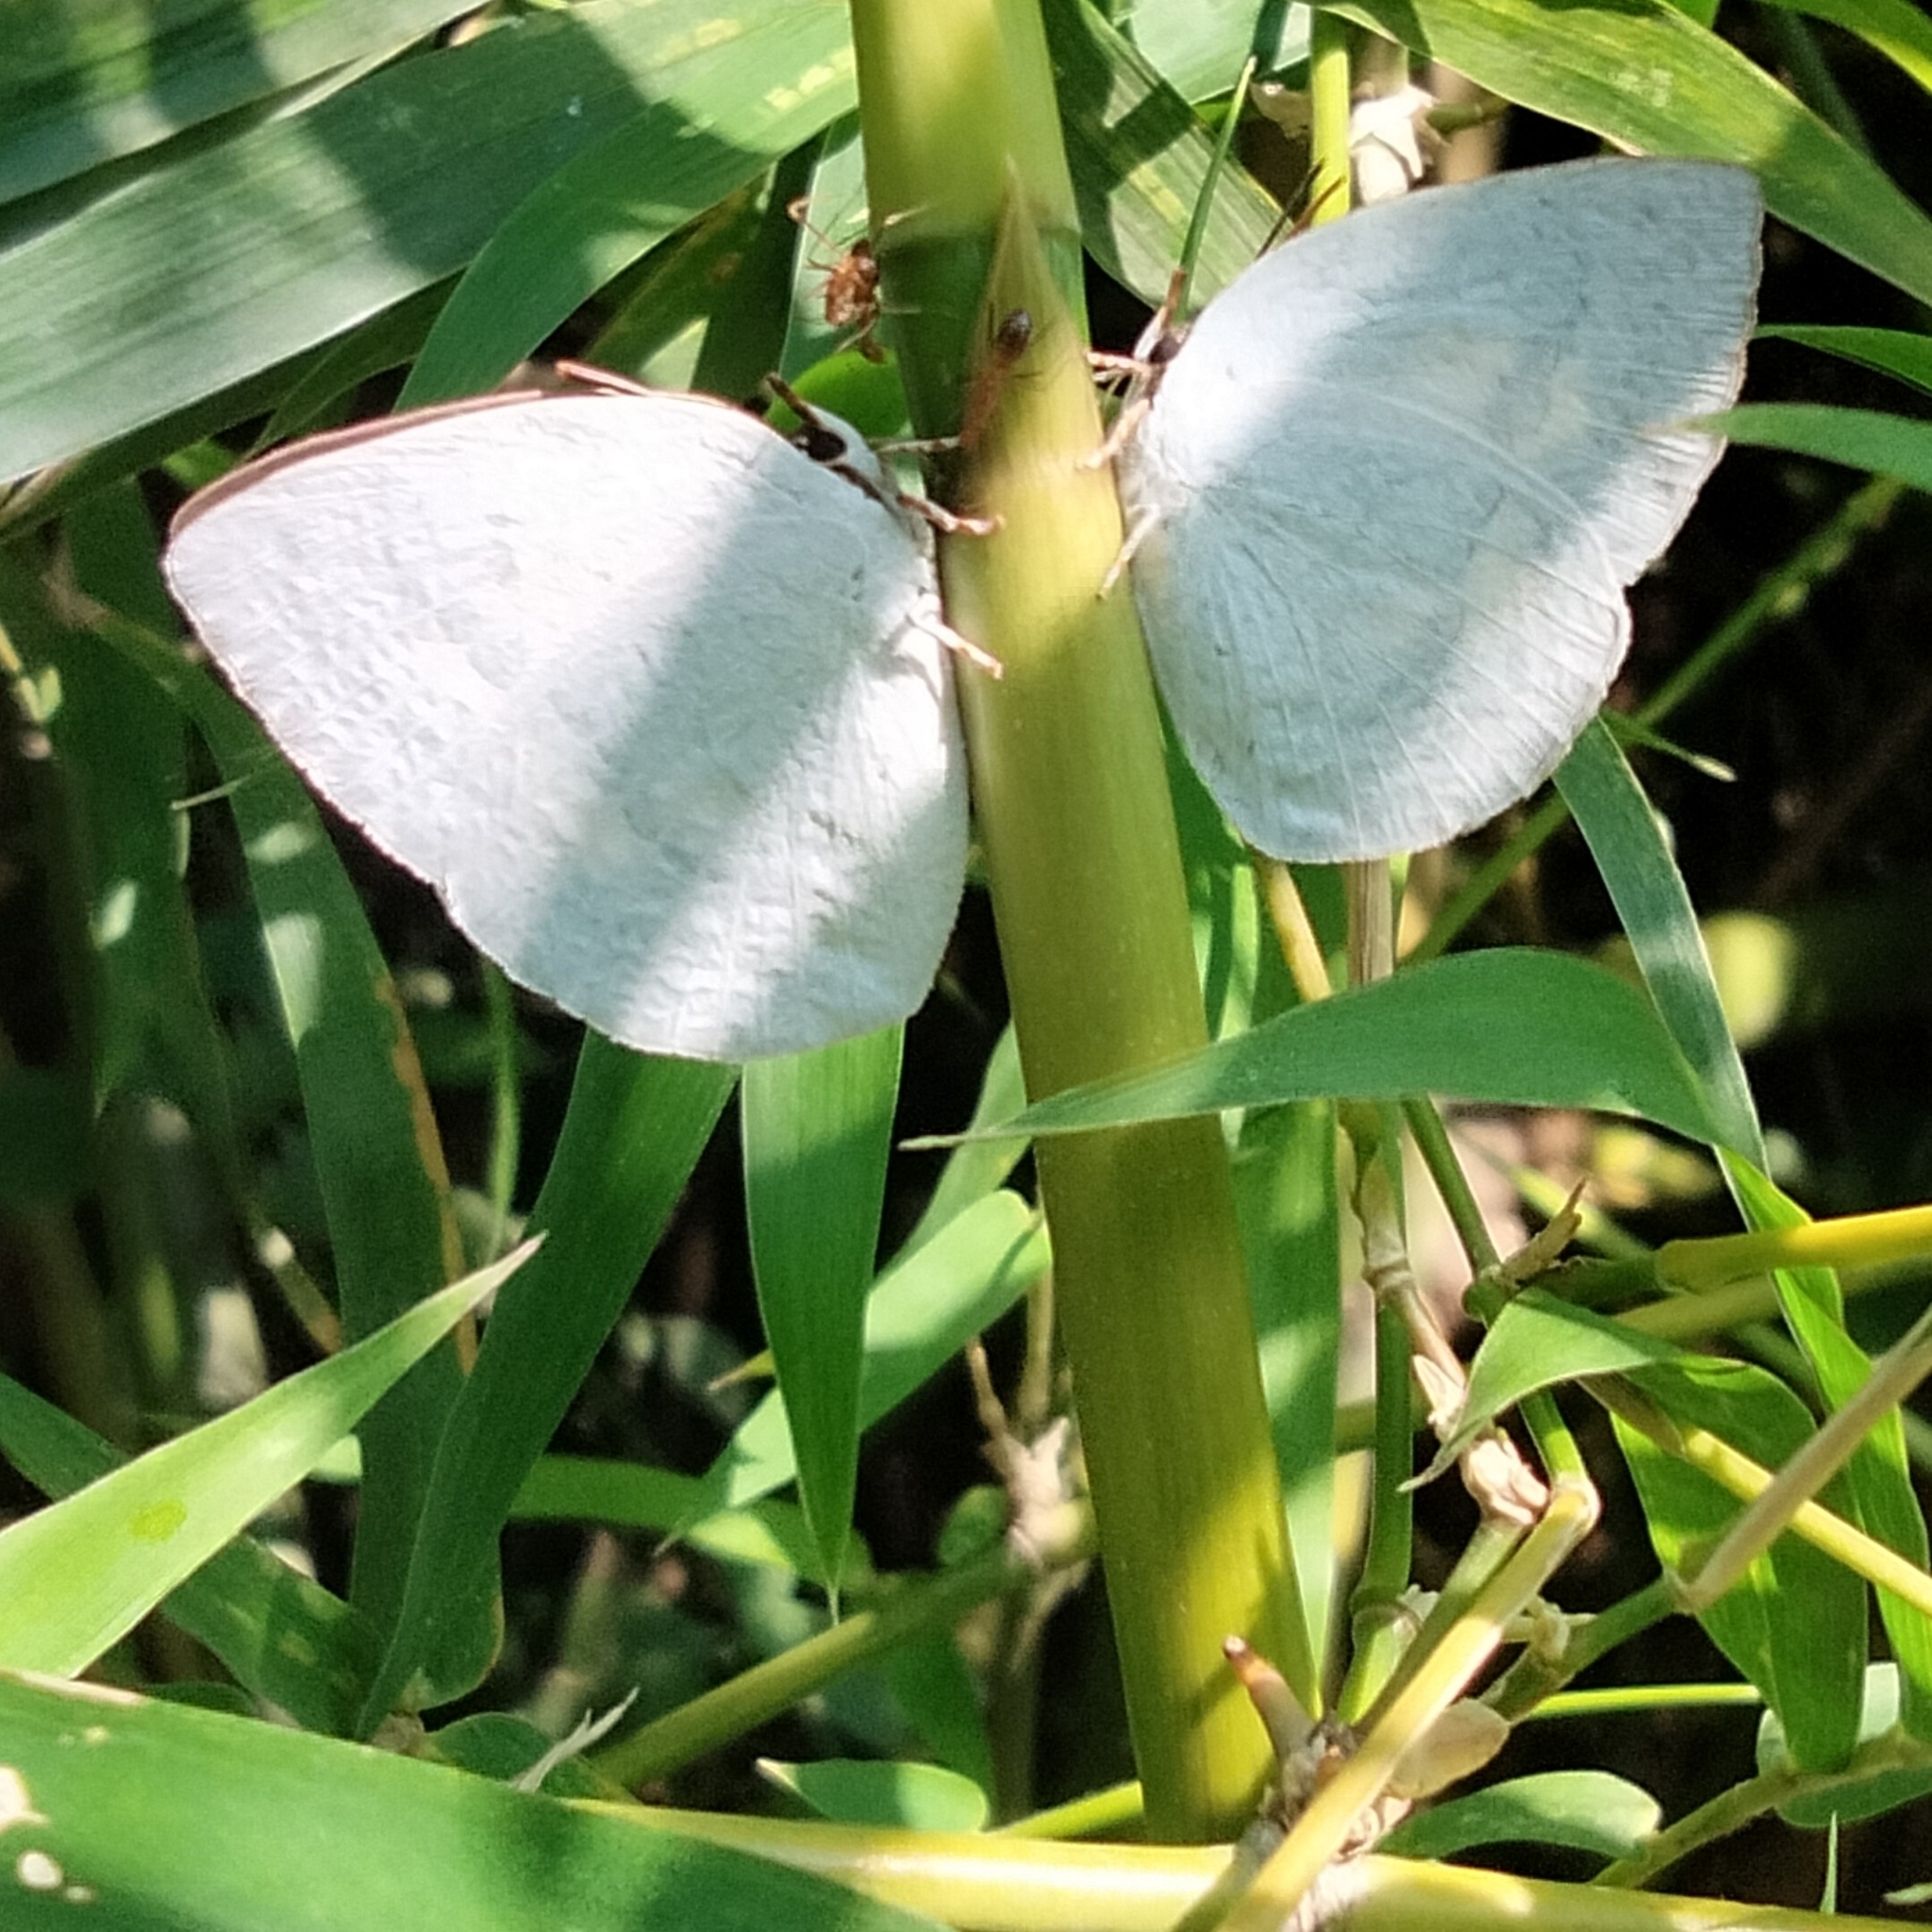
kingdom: Animalia
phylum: Arthropoda
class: Insecta
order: Lepidoptera
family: Lycaenidae
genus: Curetis
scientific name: Curetis thetis
